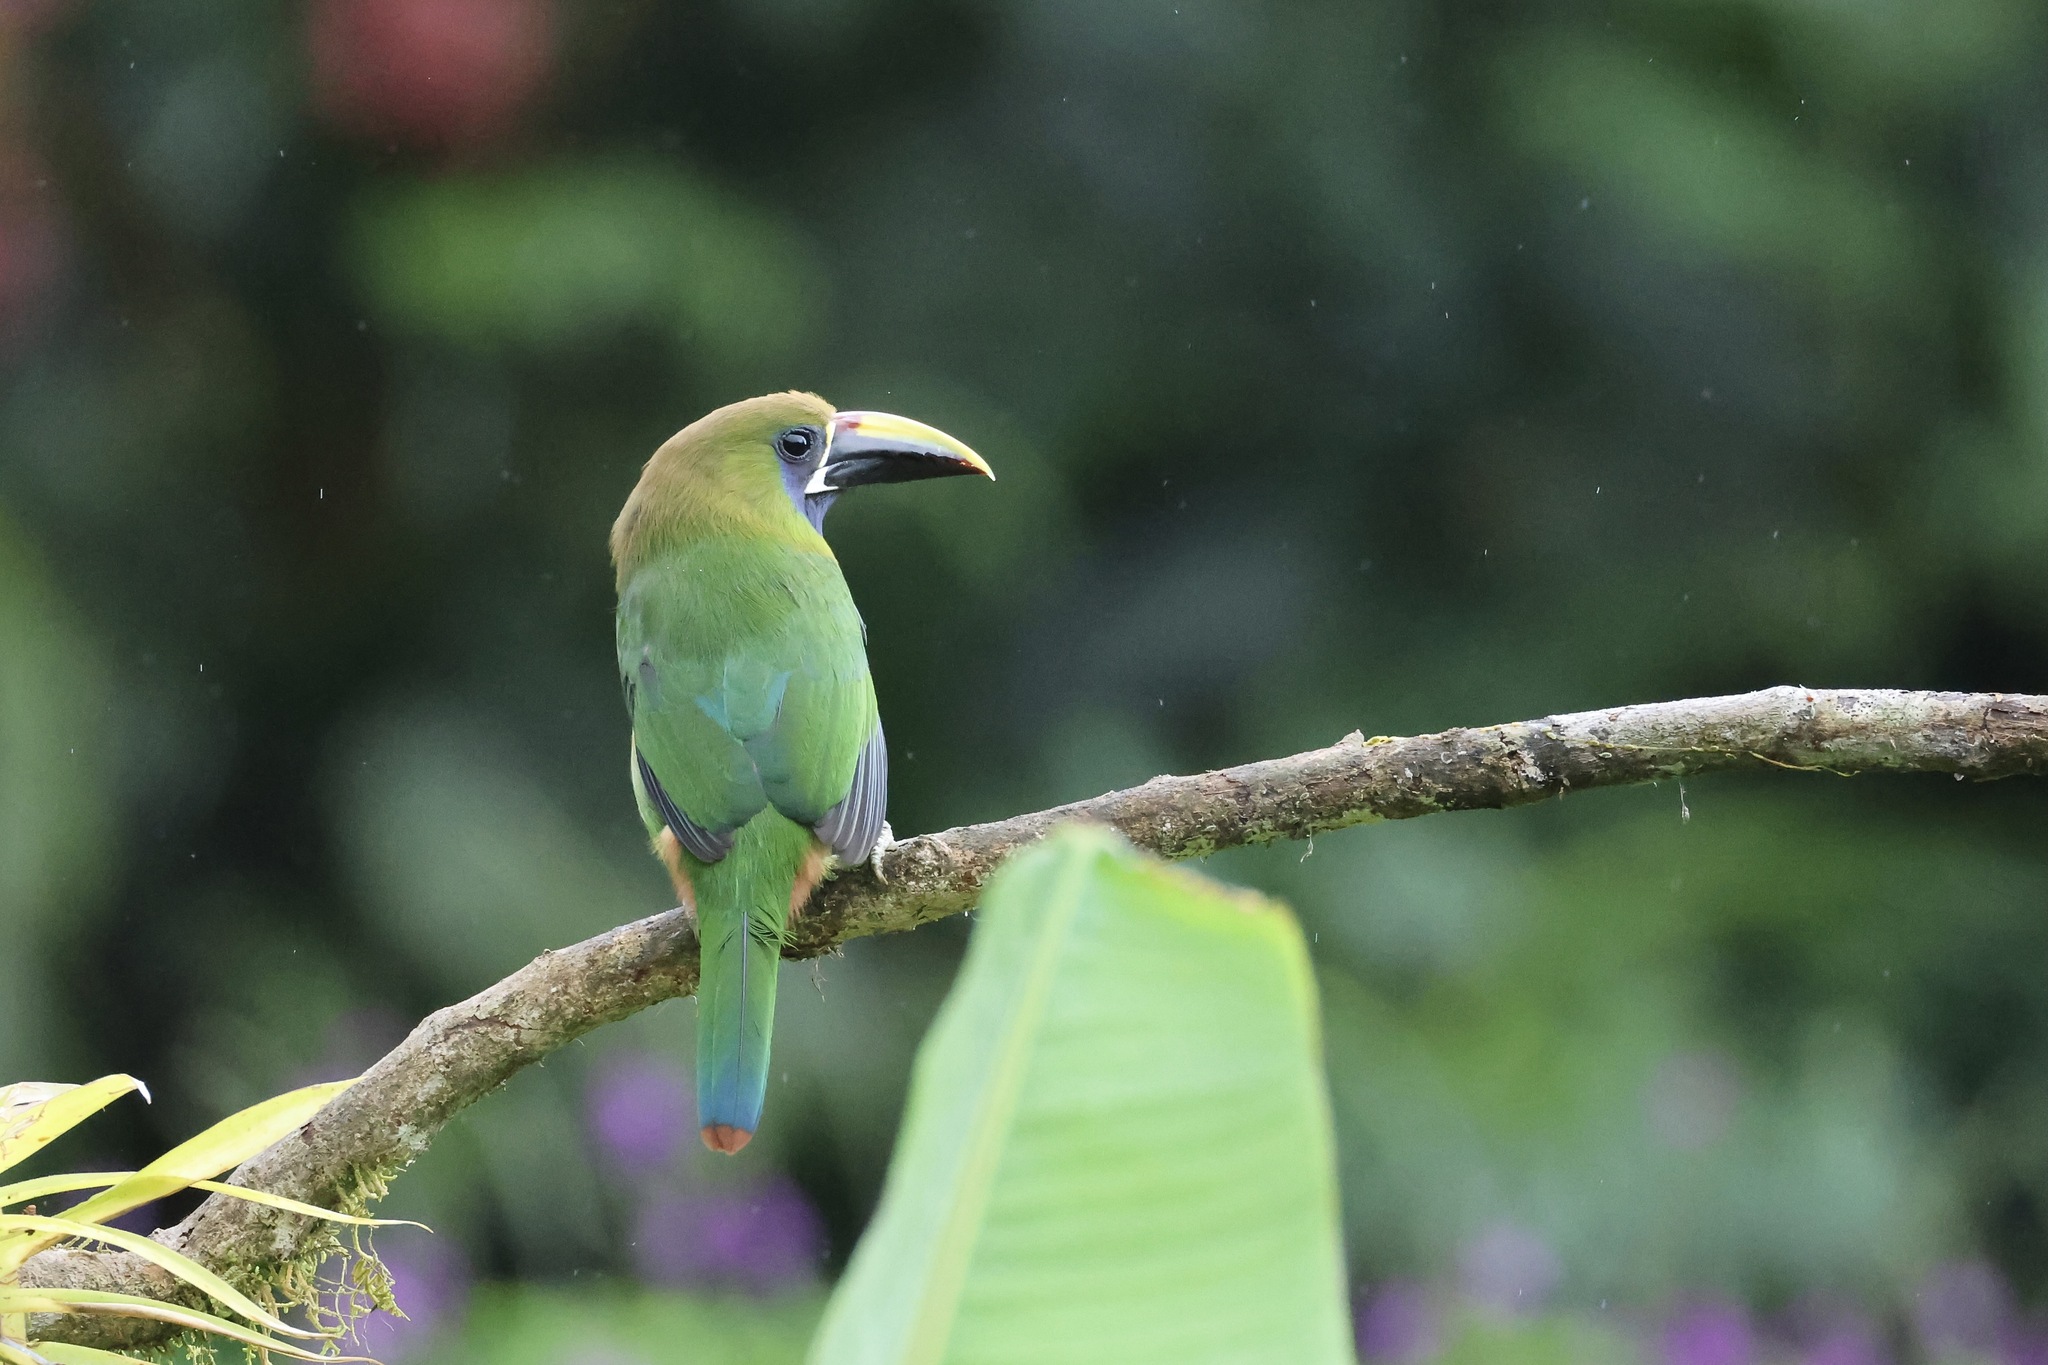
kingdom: Animalia
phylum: Chordata
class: Aves
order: Piciformes
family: Ramphastidae
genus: Aulacorhynchus
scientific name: Aulacorhynchus prasinus
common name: Emerald toucanet
